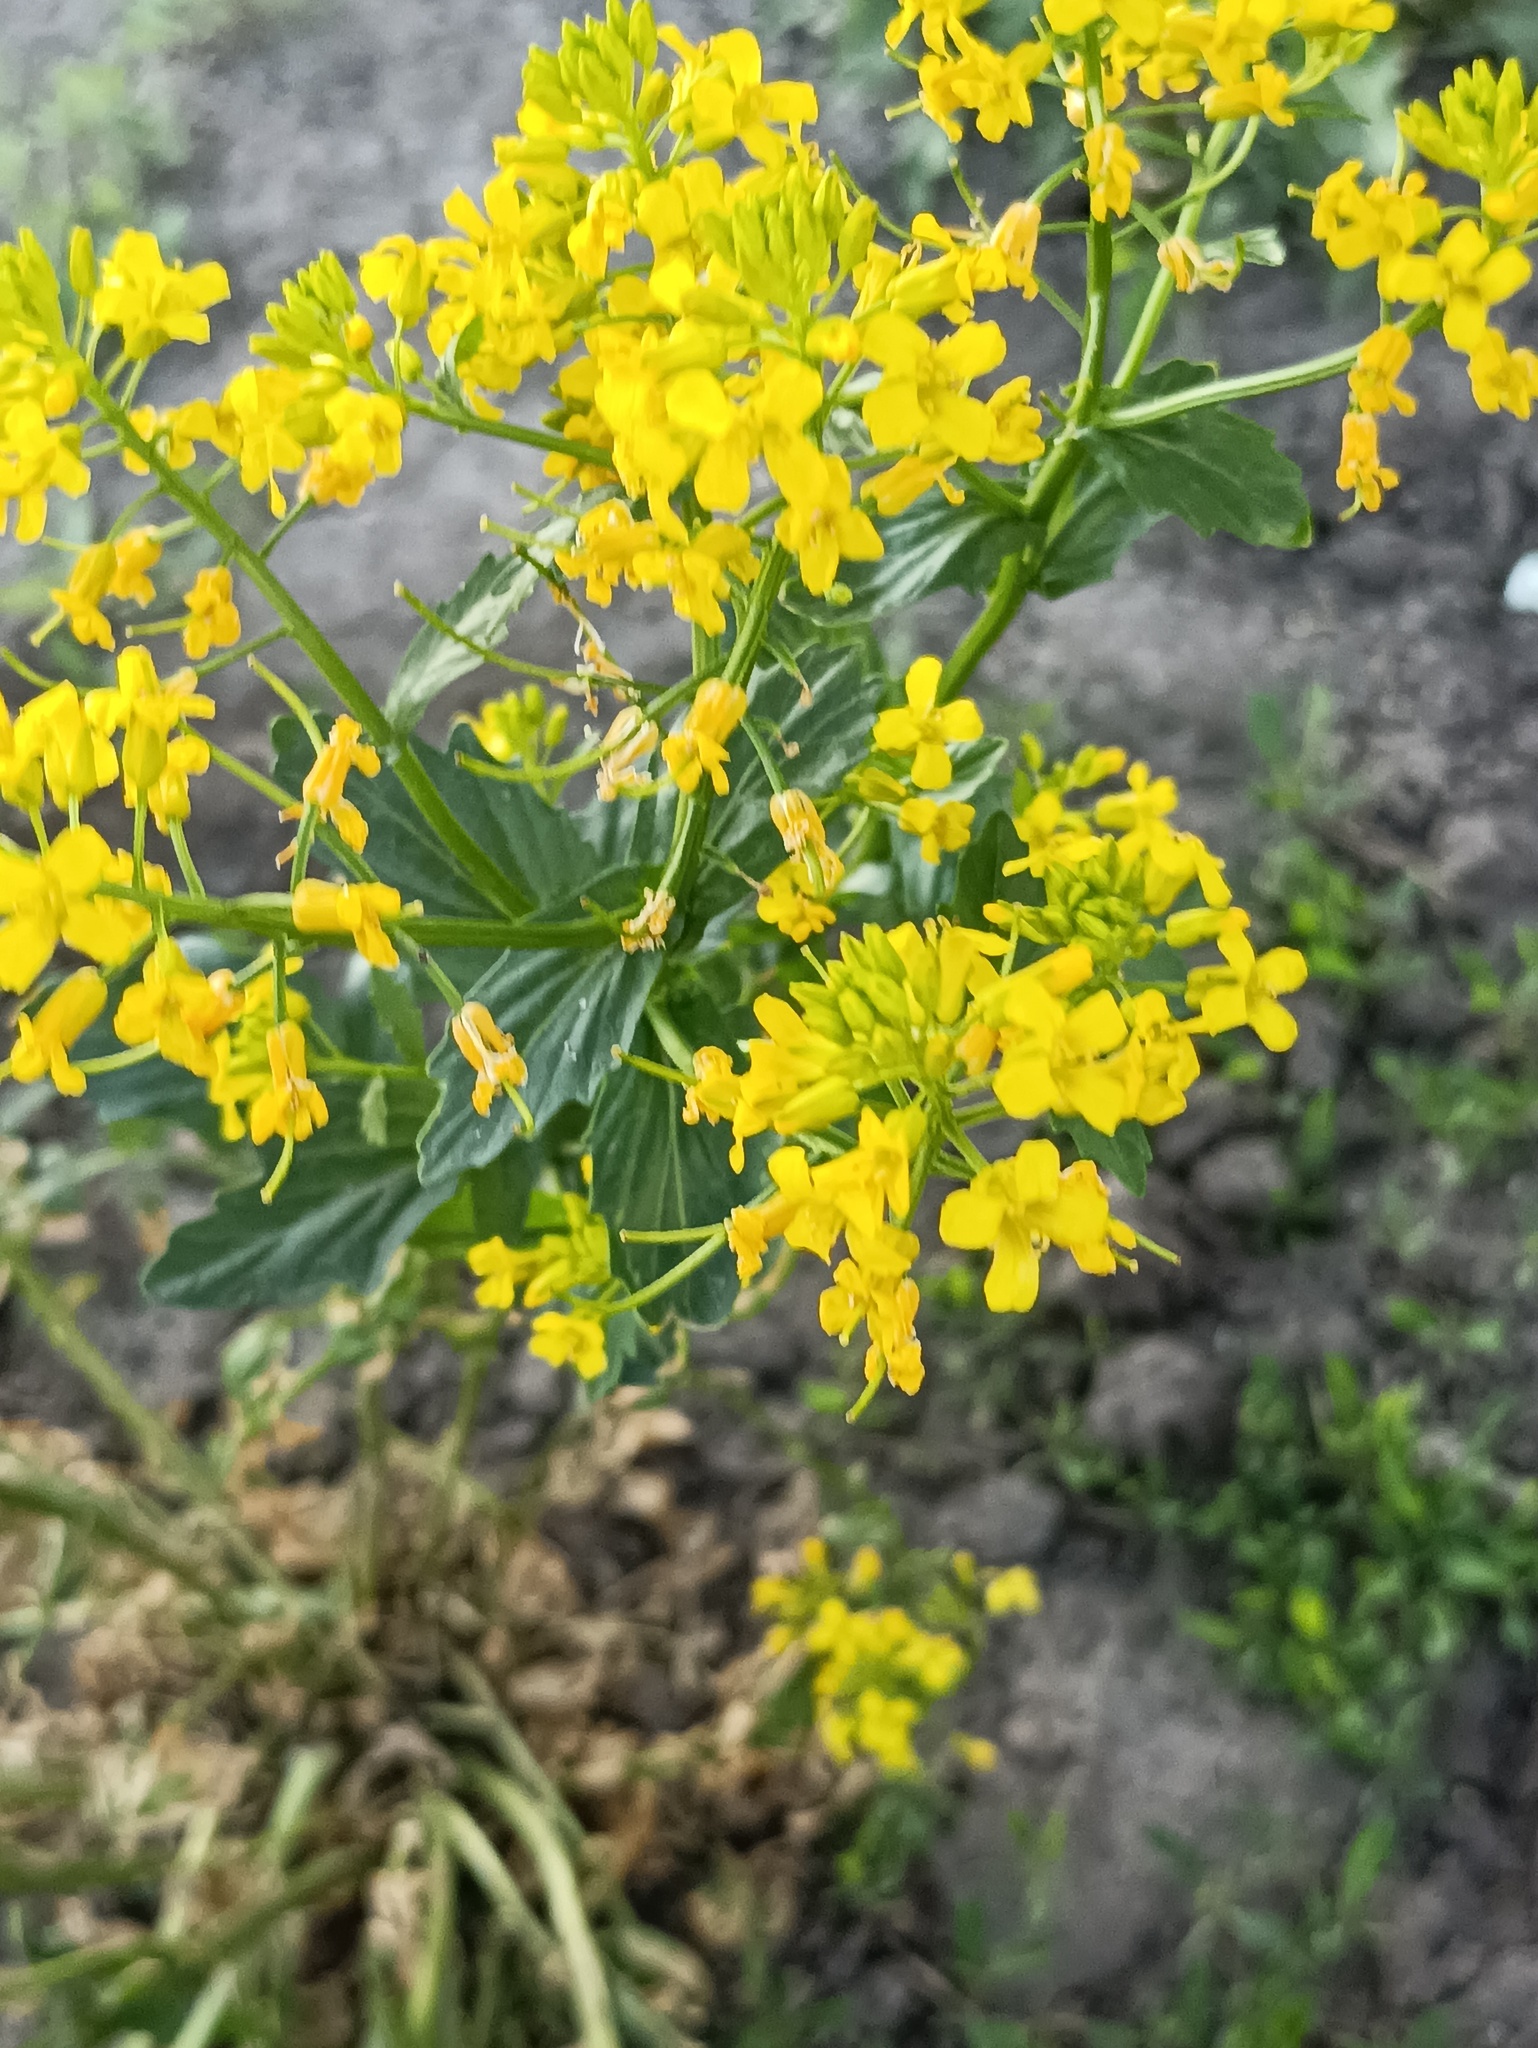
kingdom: Plantae
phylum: Tracheophyta
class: Magnoliopsida
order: Brassicales
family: Brassicaceae
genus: Barbarea
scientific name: Barbarea vulgaris
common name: Cressy-greens
